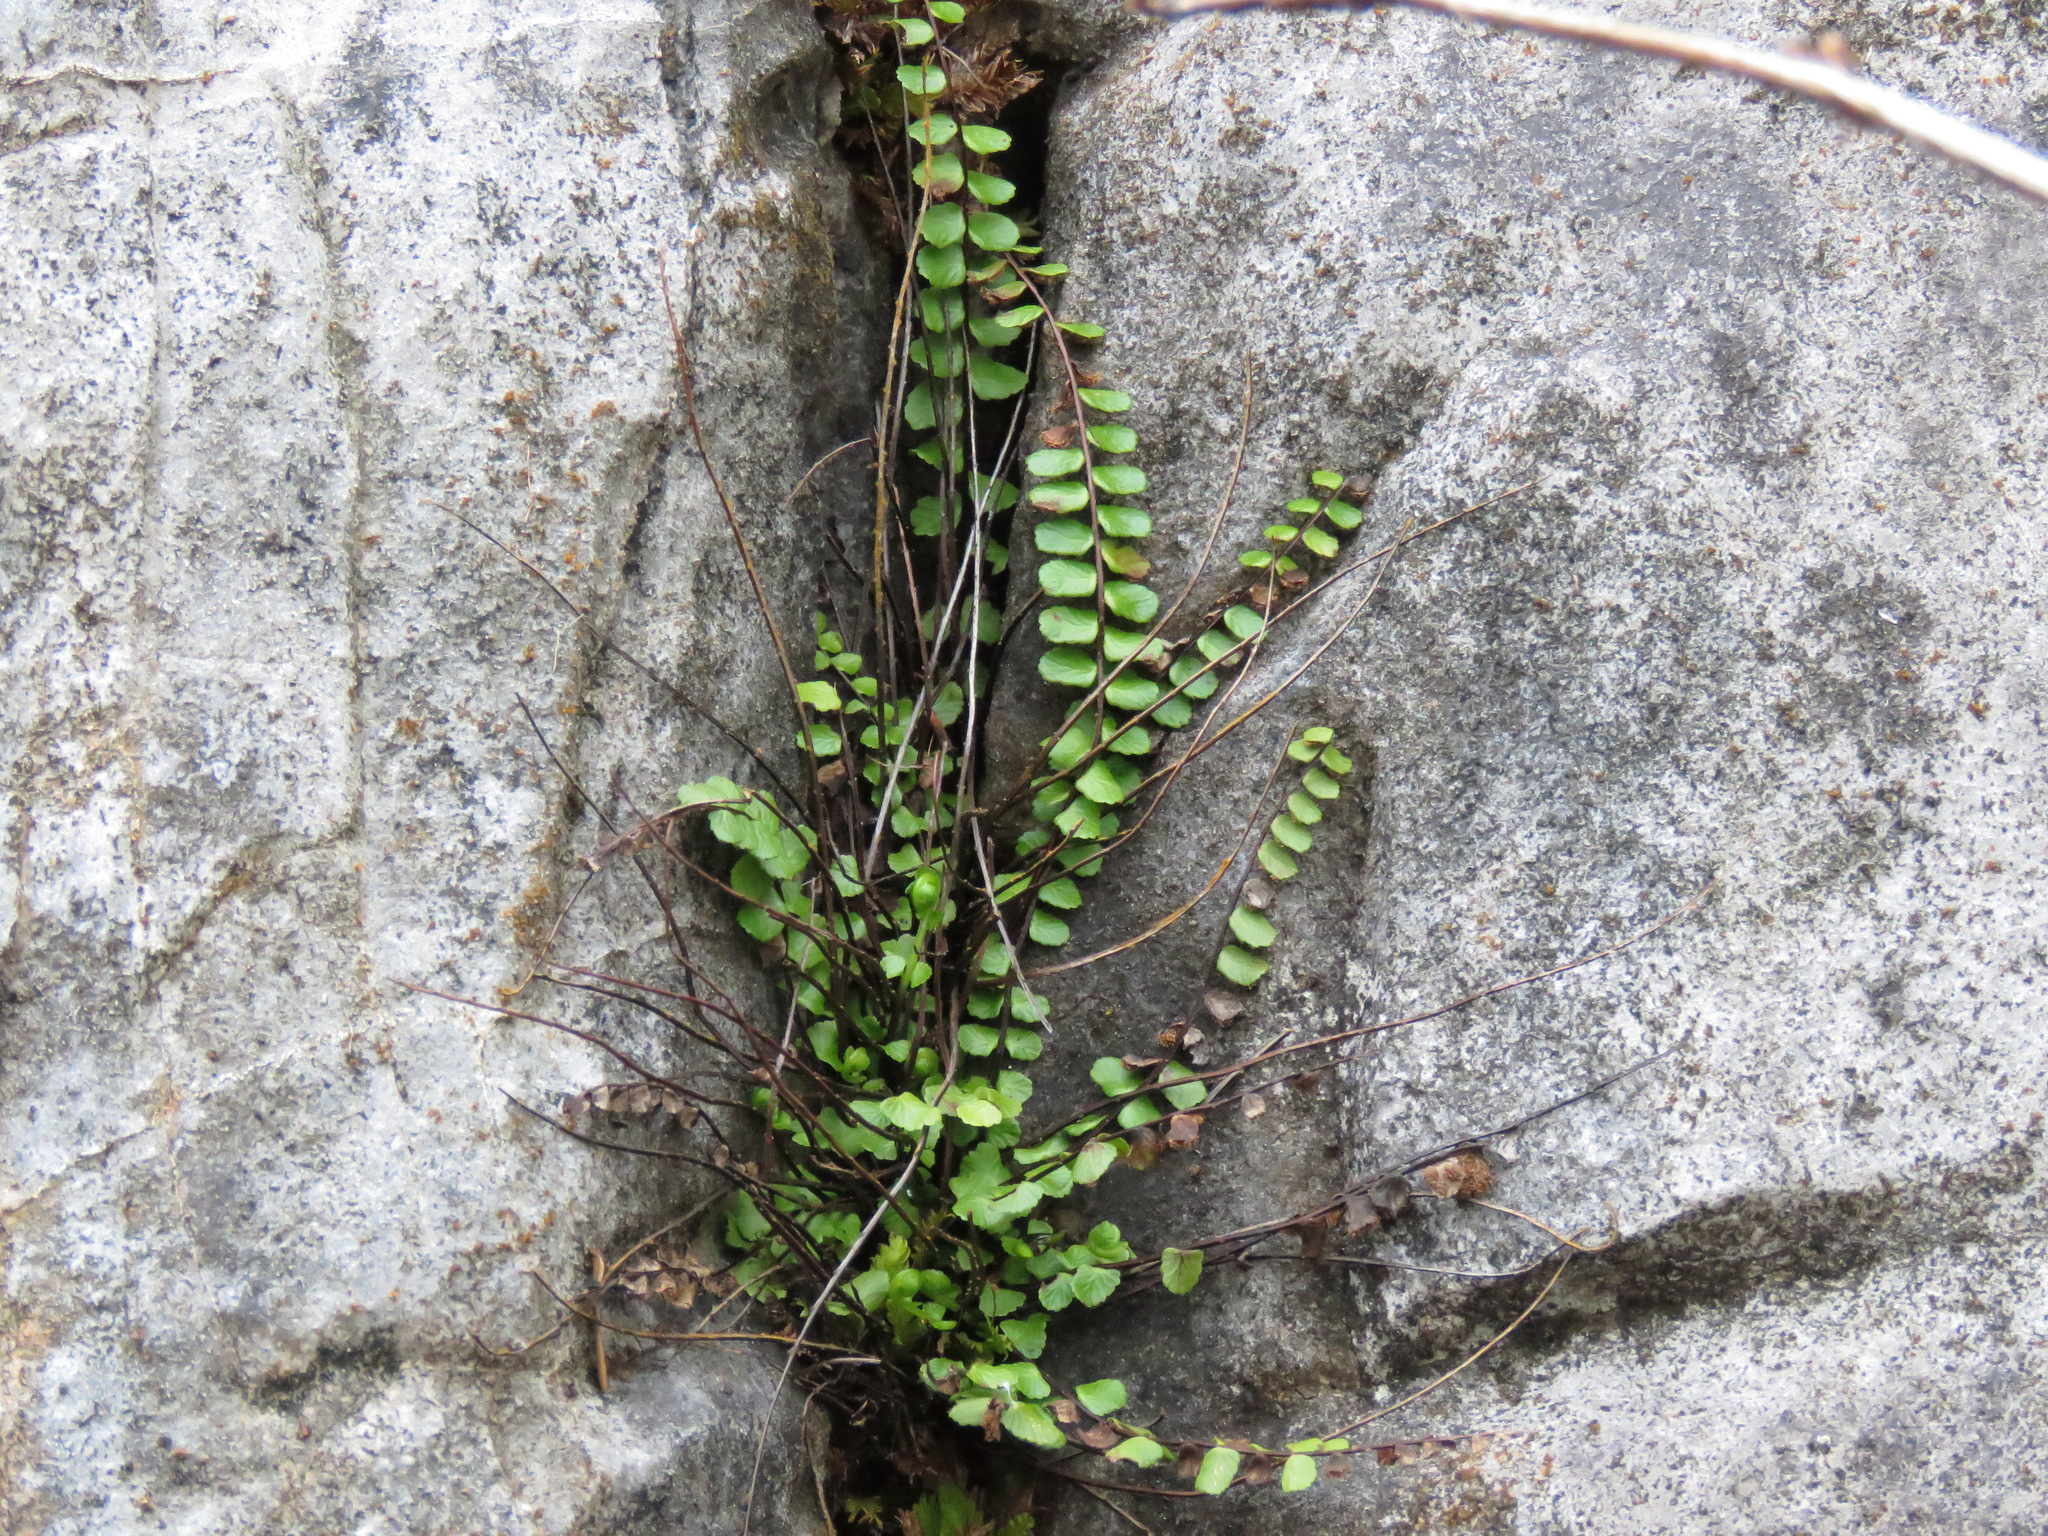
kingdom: Plantae
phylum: Tracheophyta
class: Polypodiopsida
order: Polypodiales
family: Aspleniaceae
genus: Asplenium
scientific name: Asplenium trichomanes
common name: Maidenhair spleenwort
